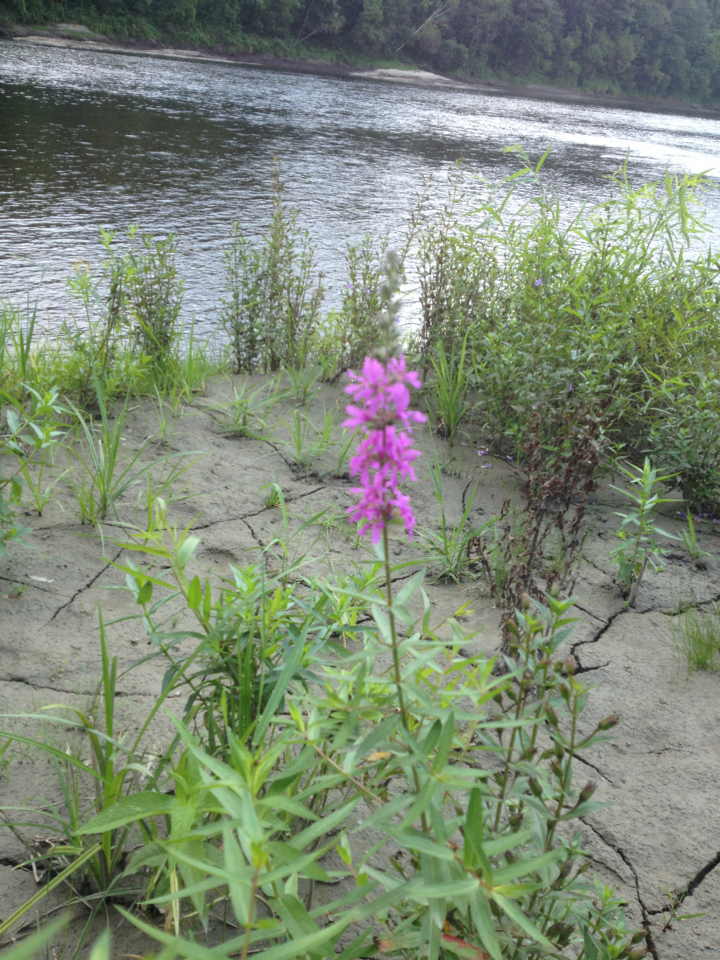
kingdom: Plantae
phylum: Tracheophyta
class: Magnoliopsida
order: Myrtales
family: Lythraceae
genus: Lythrum
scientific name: Lythrum salicaria
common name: Purple loosestrife
